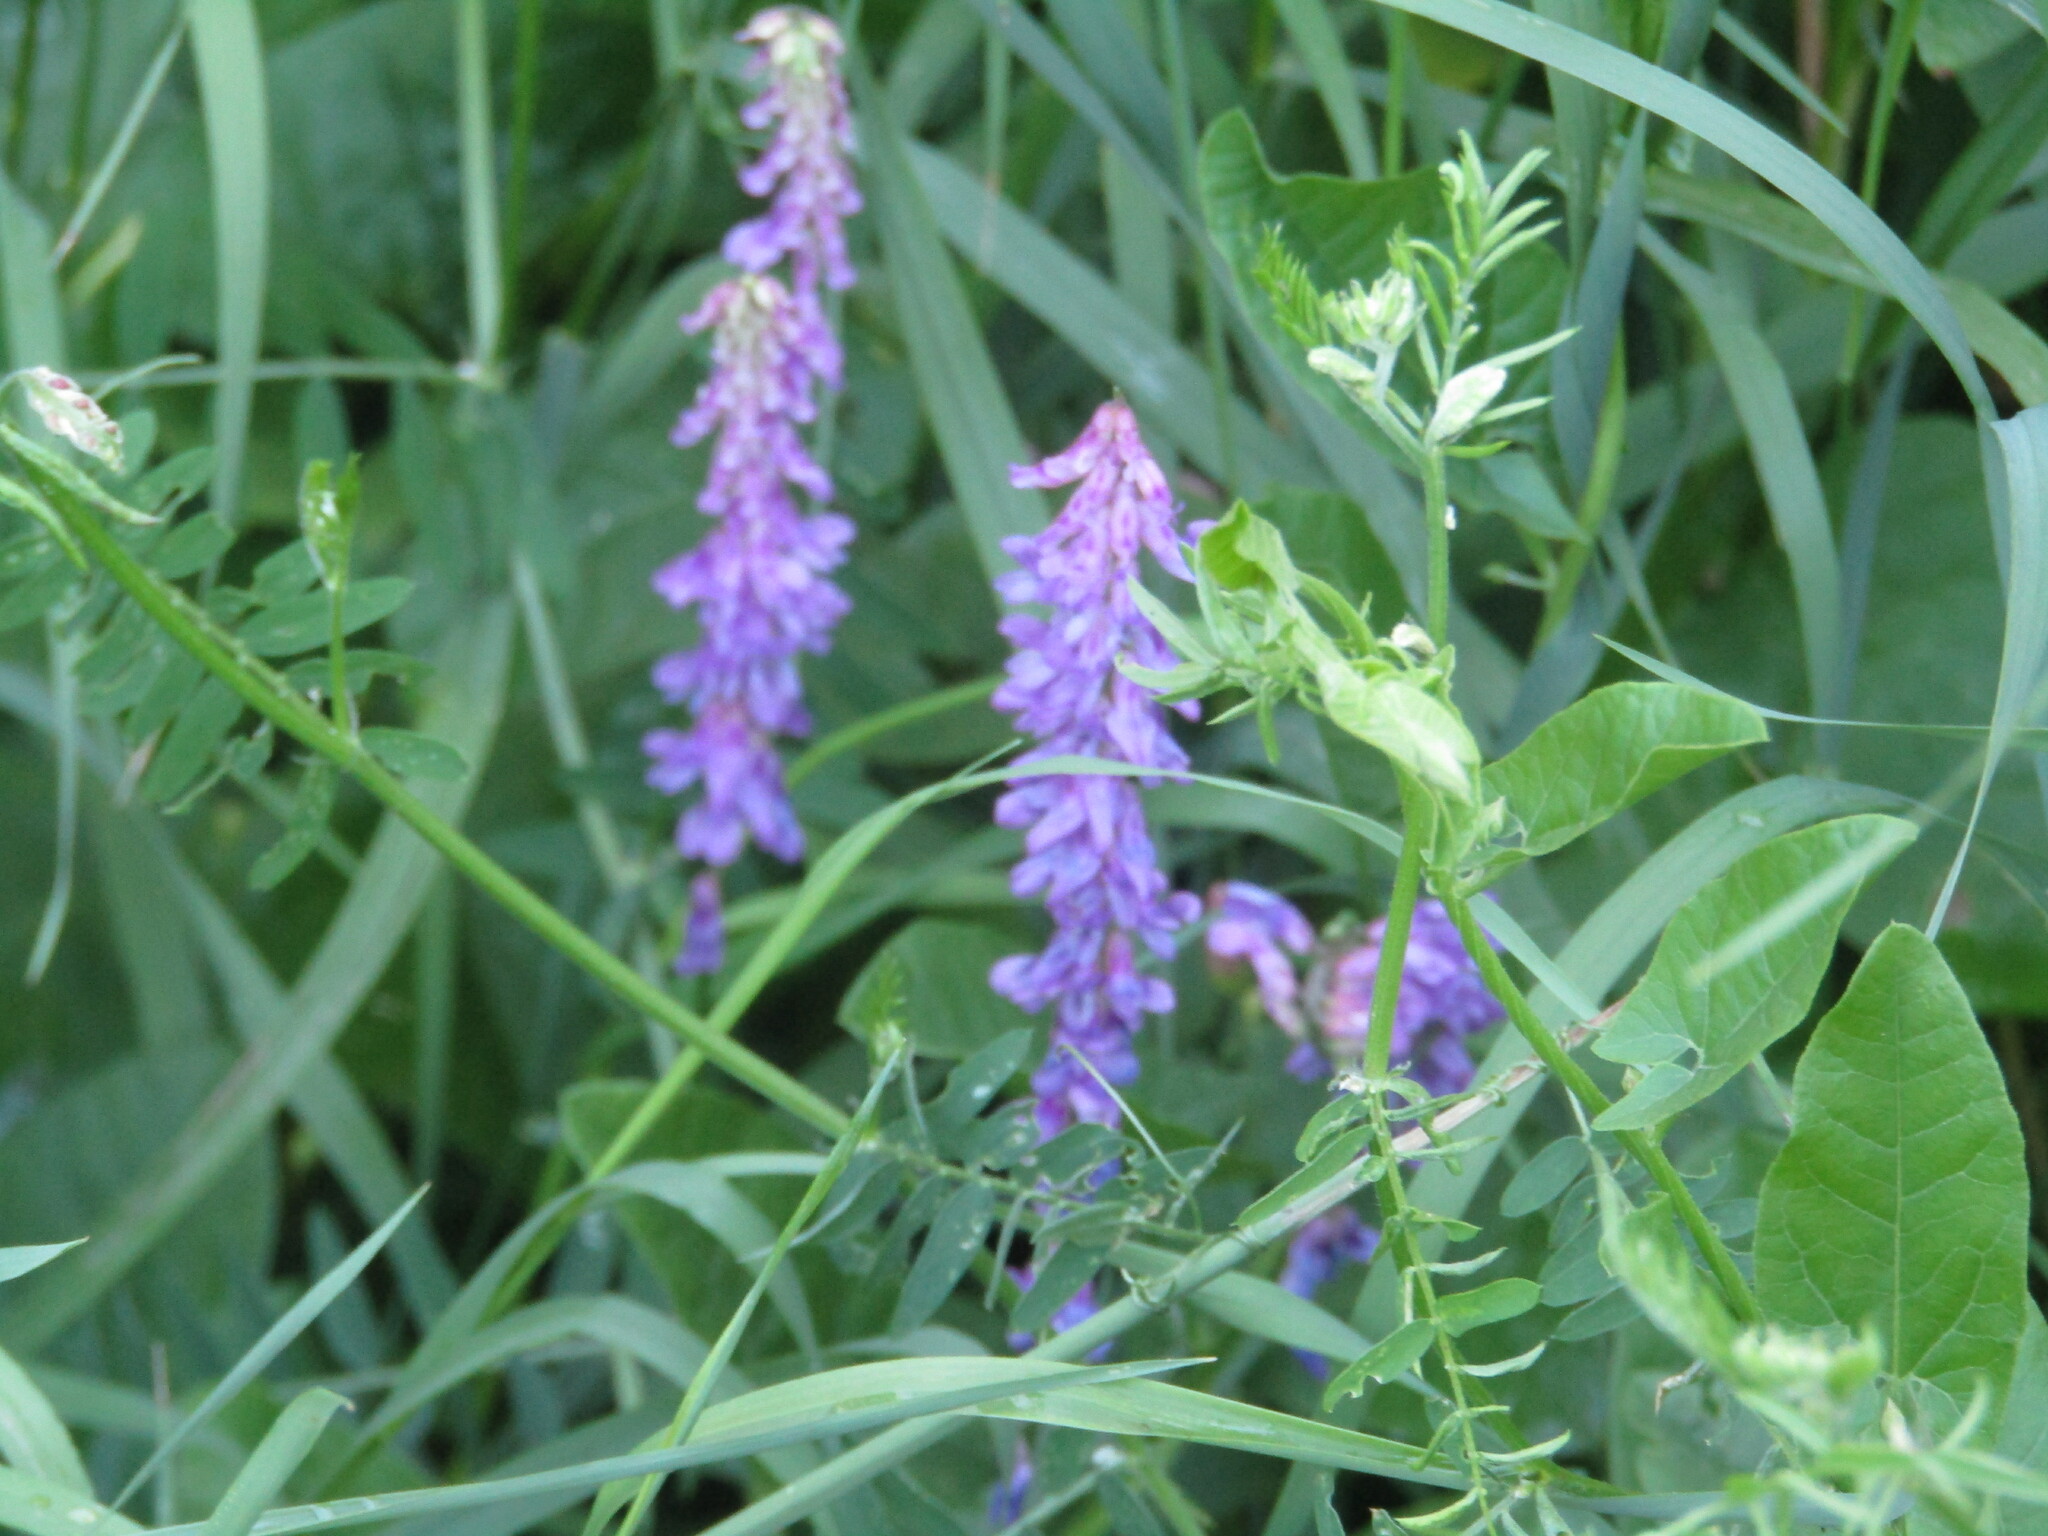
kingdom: Plantae
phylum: Tracheophyta
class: Magnoliopsida
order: Fabales
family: Fabaceae
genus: Vicia
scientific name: Vicia cracca
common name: Bird vetch
